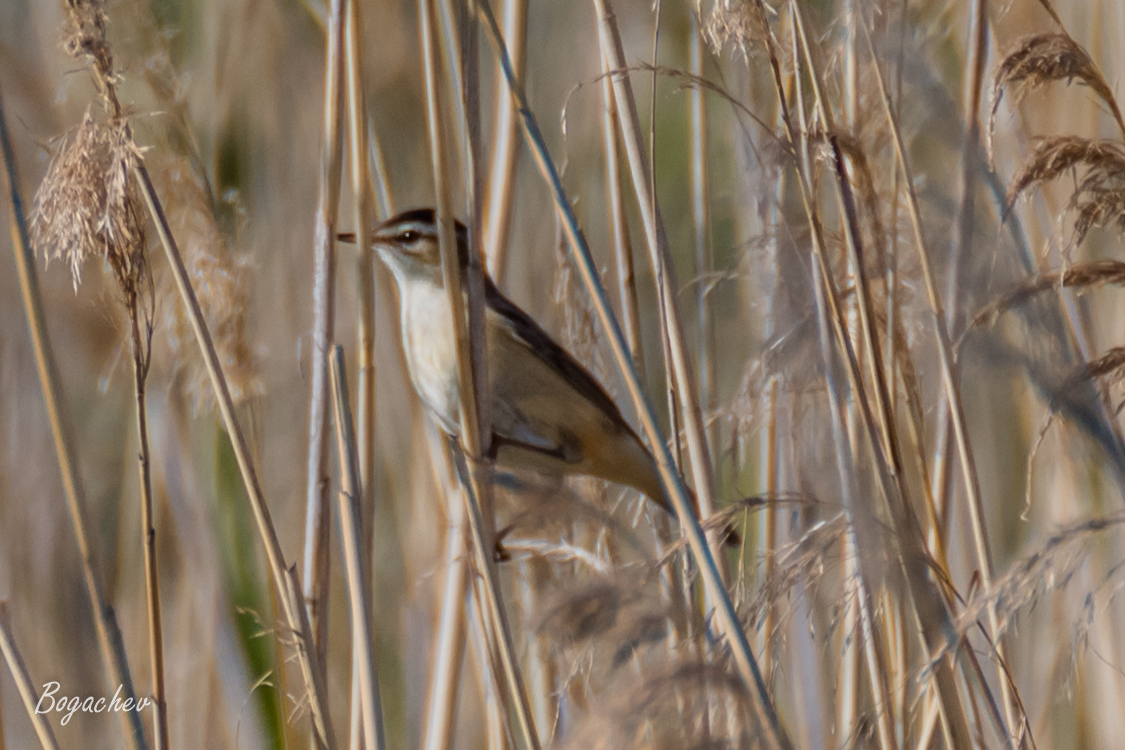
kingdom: Animalia
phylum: Chordata
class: Aves
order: Passeriformes
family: Acrocephalidae
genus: Acrocephalus
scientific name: Acrocephalus schoenobaenus
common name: Sedge warbler
